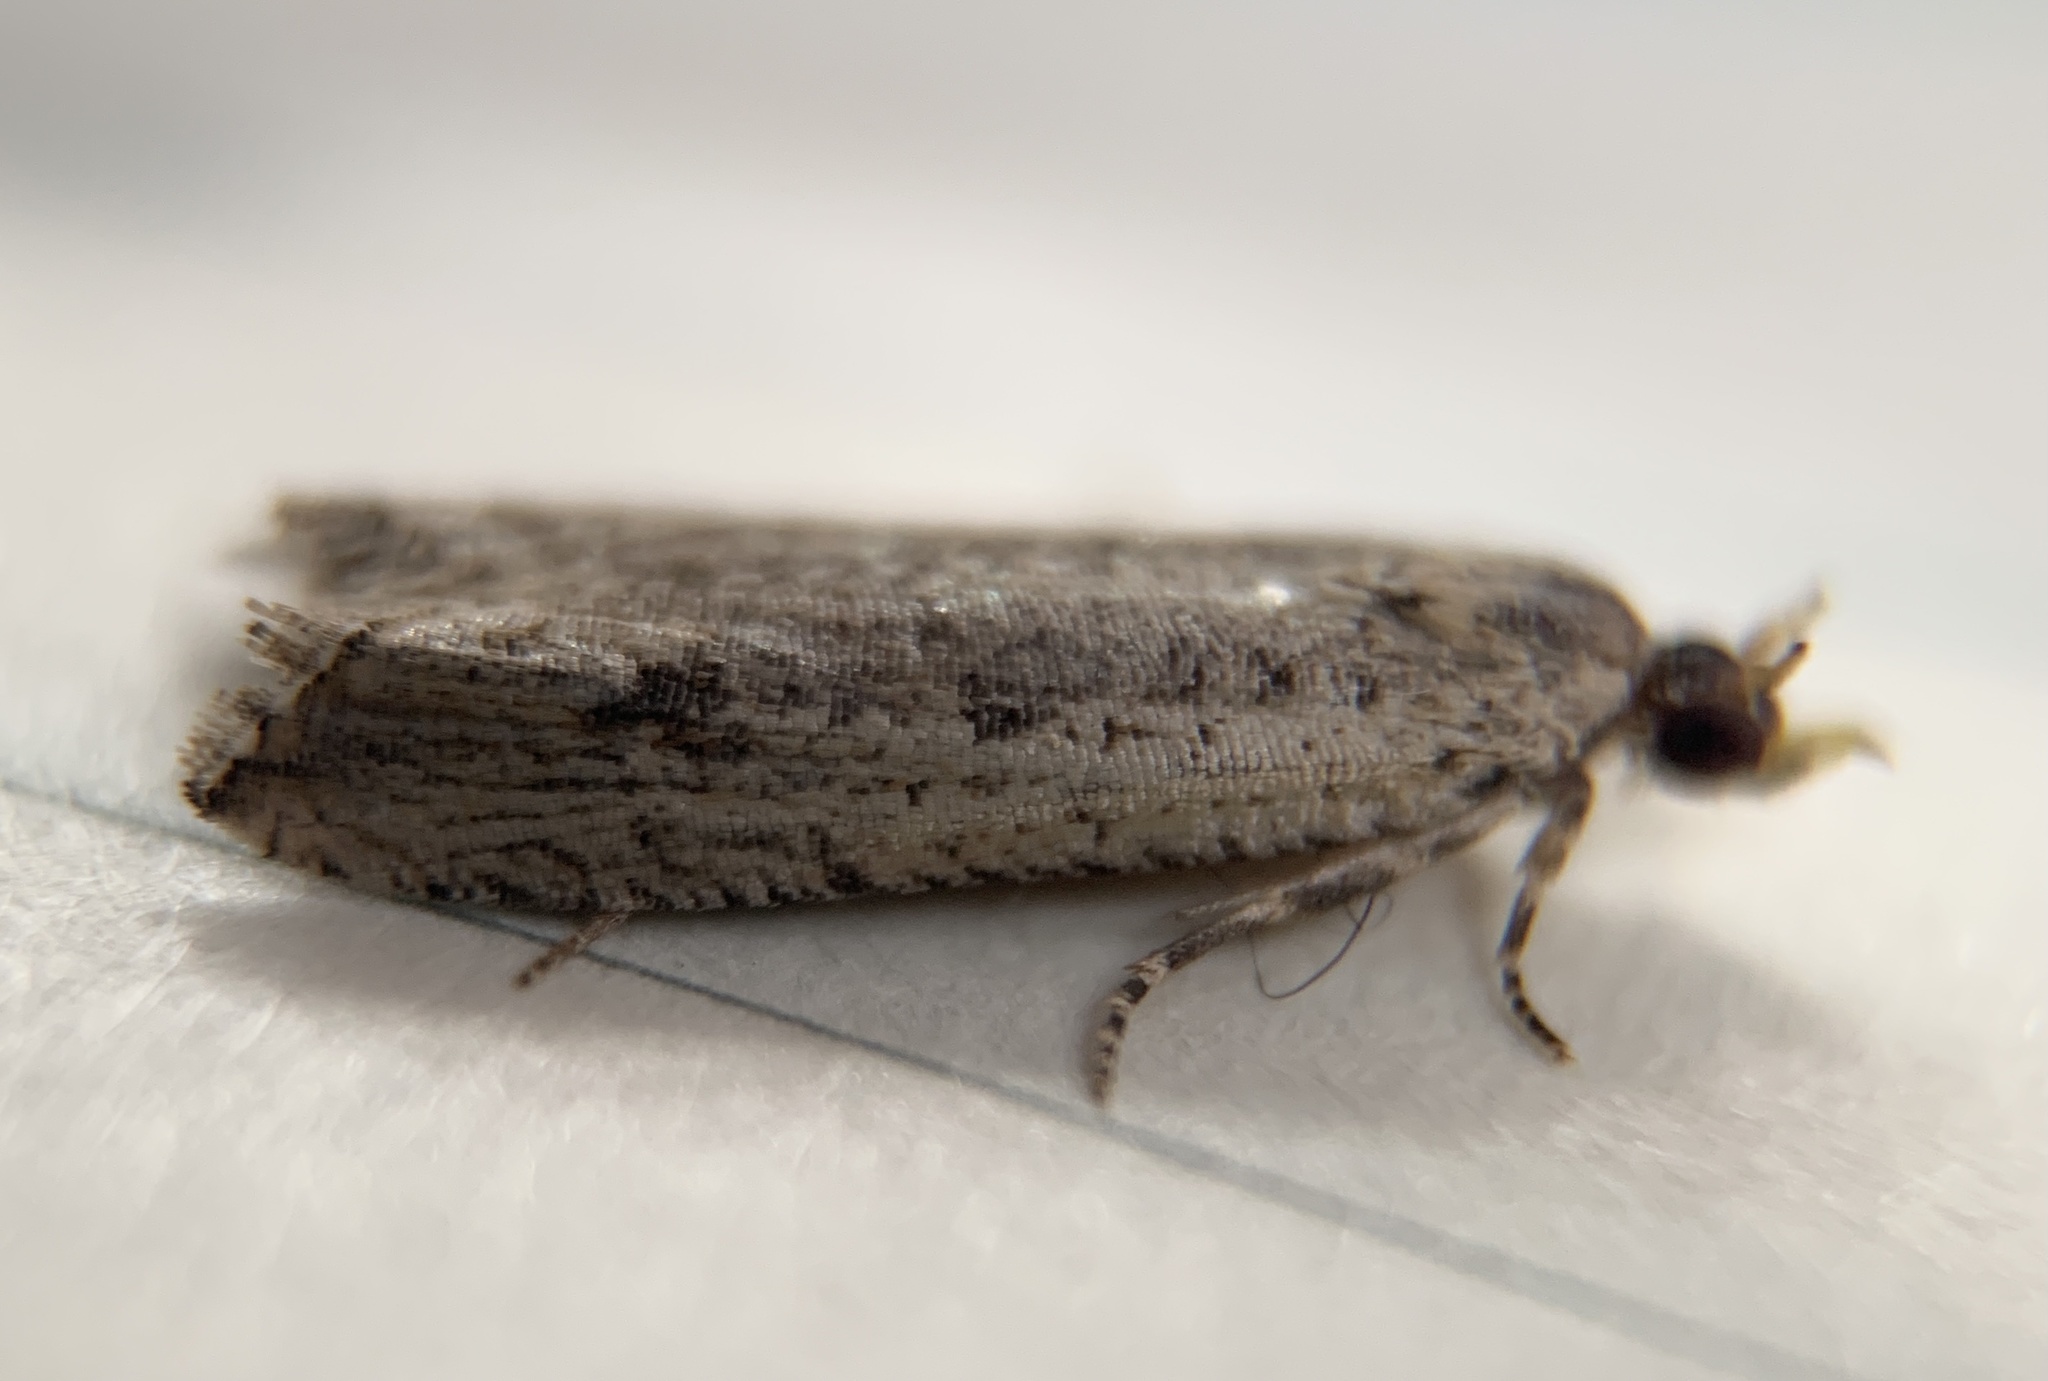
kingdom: Animalia
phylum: Arthropoda
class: Insecta
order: Lepidoptera
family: Tortricidae
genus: Bactra
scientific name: Bactra verutana
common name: Javelin moth
